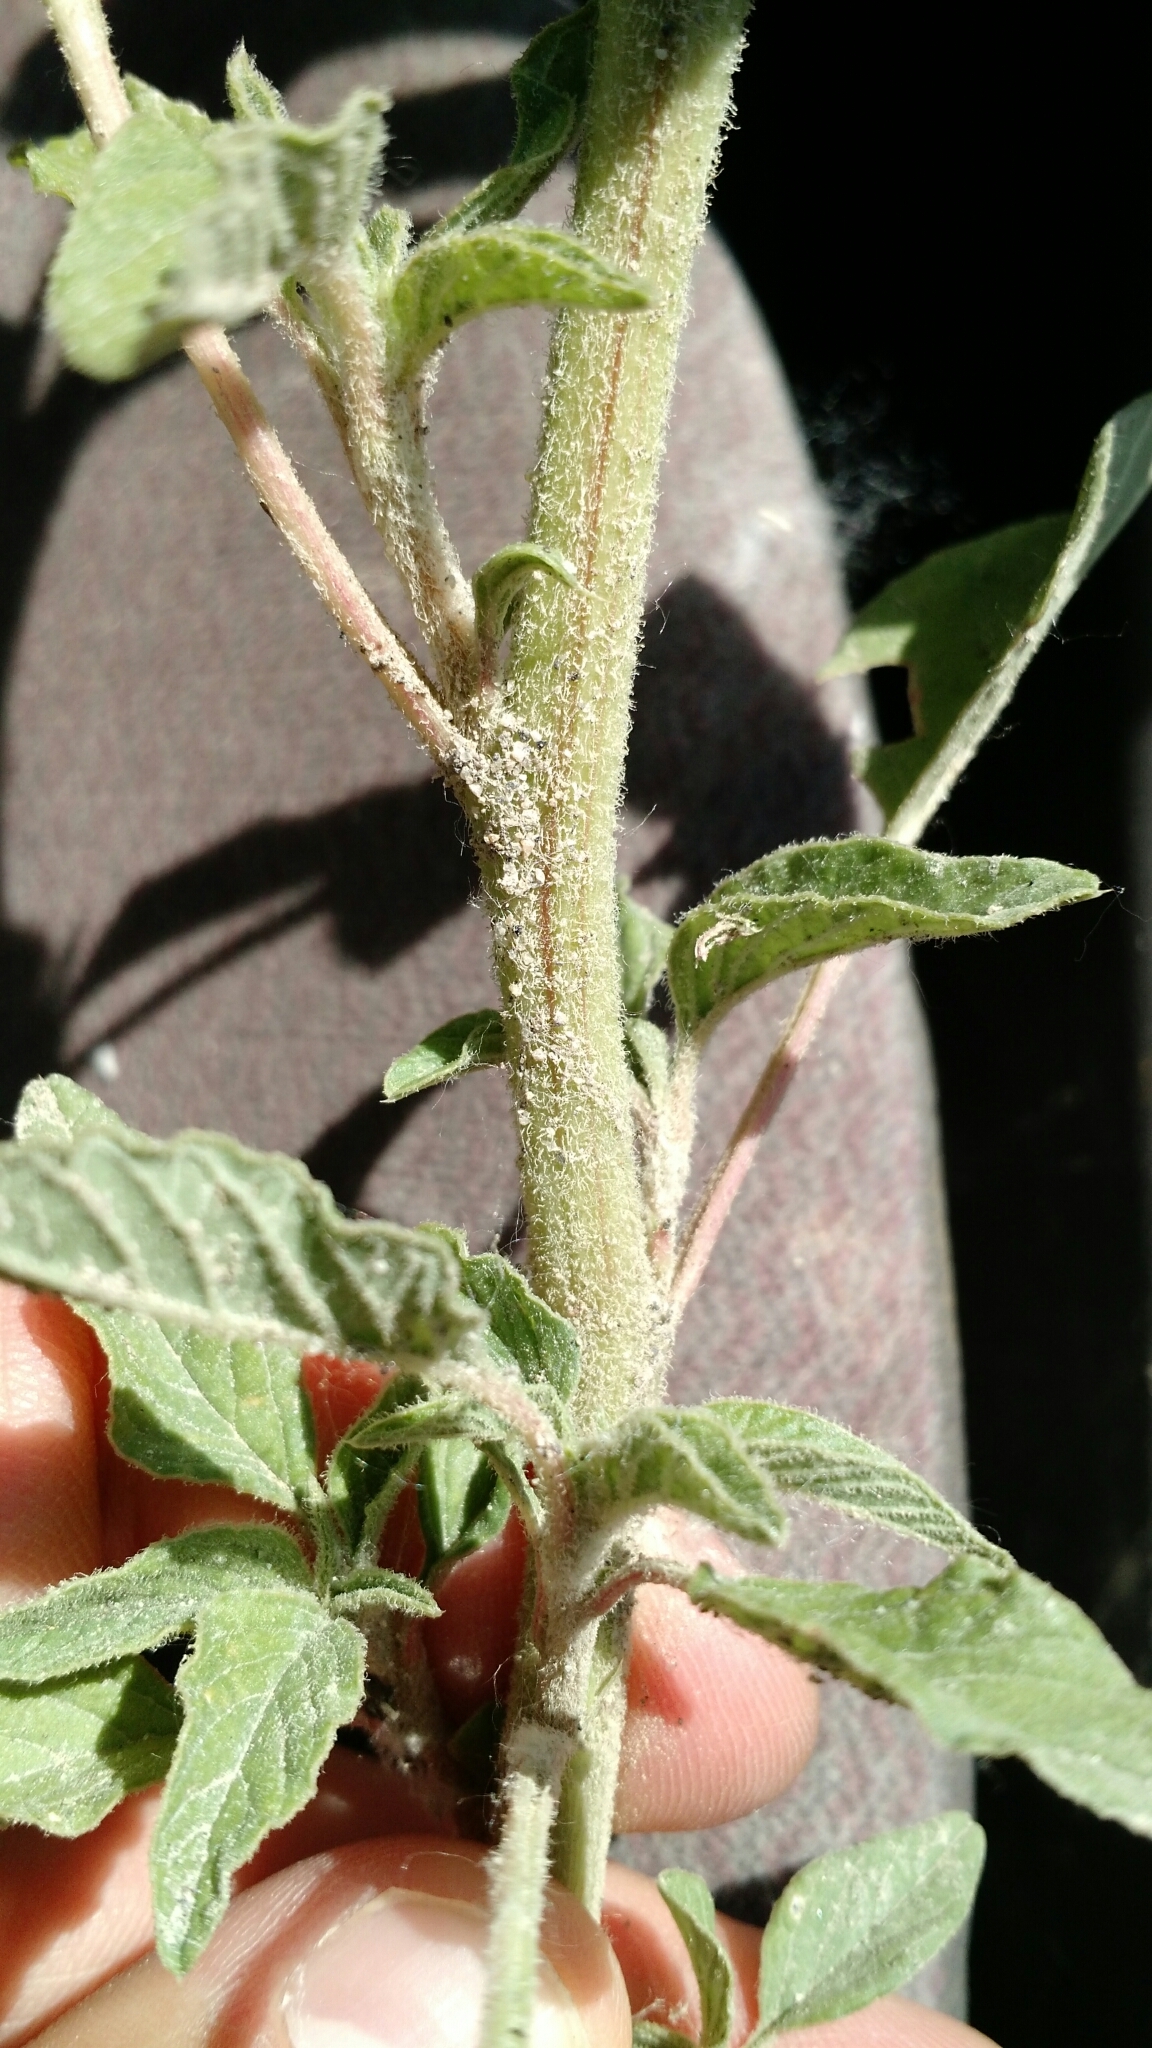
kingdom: Plantae
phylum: Tracheophyta
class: Magnoliopsida
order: Caryophyllales
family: Amaranthaceae
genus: Amaranthus
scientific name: Amaranthus retroflexus
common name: Redroot amaranth
